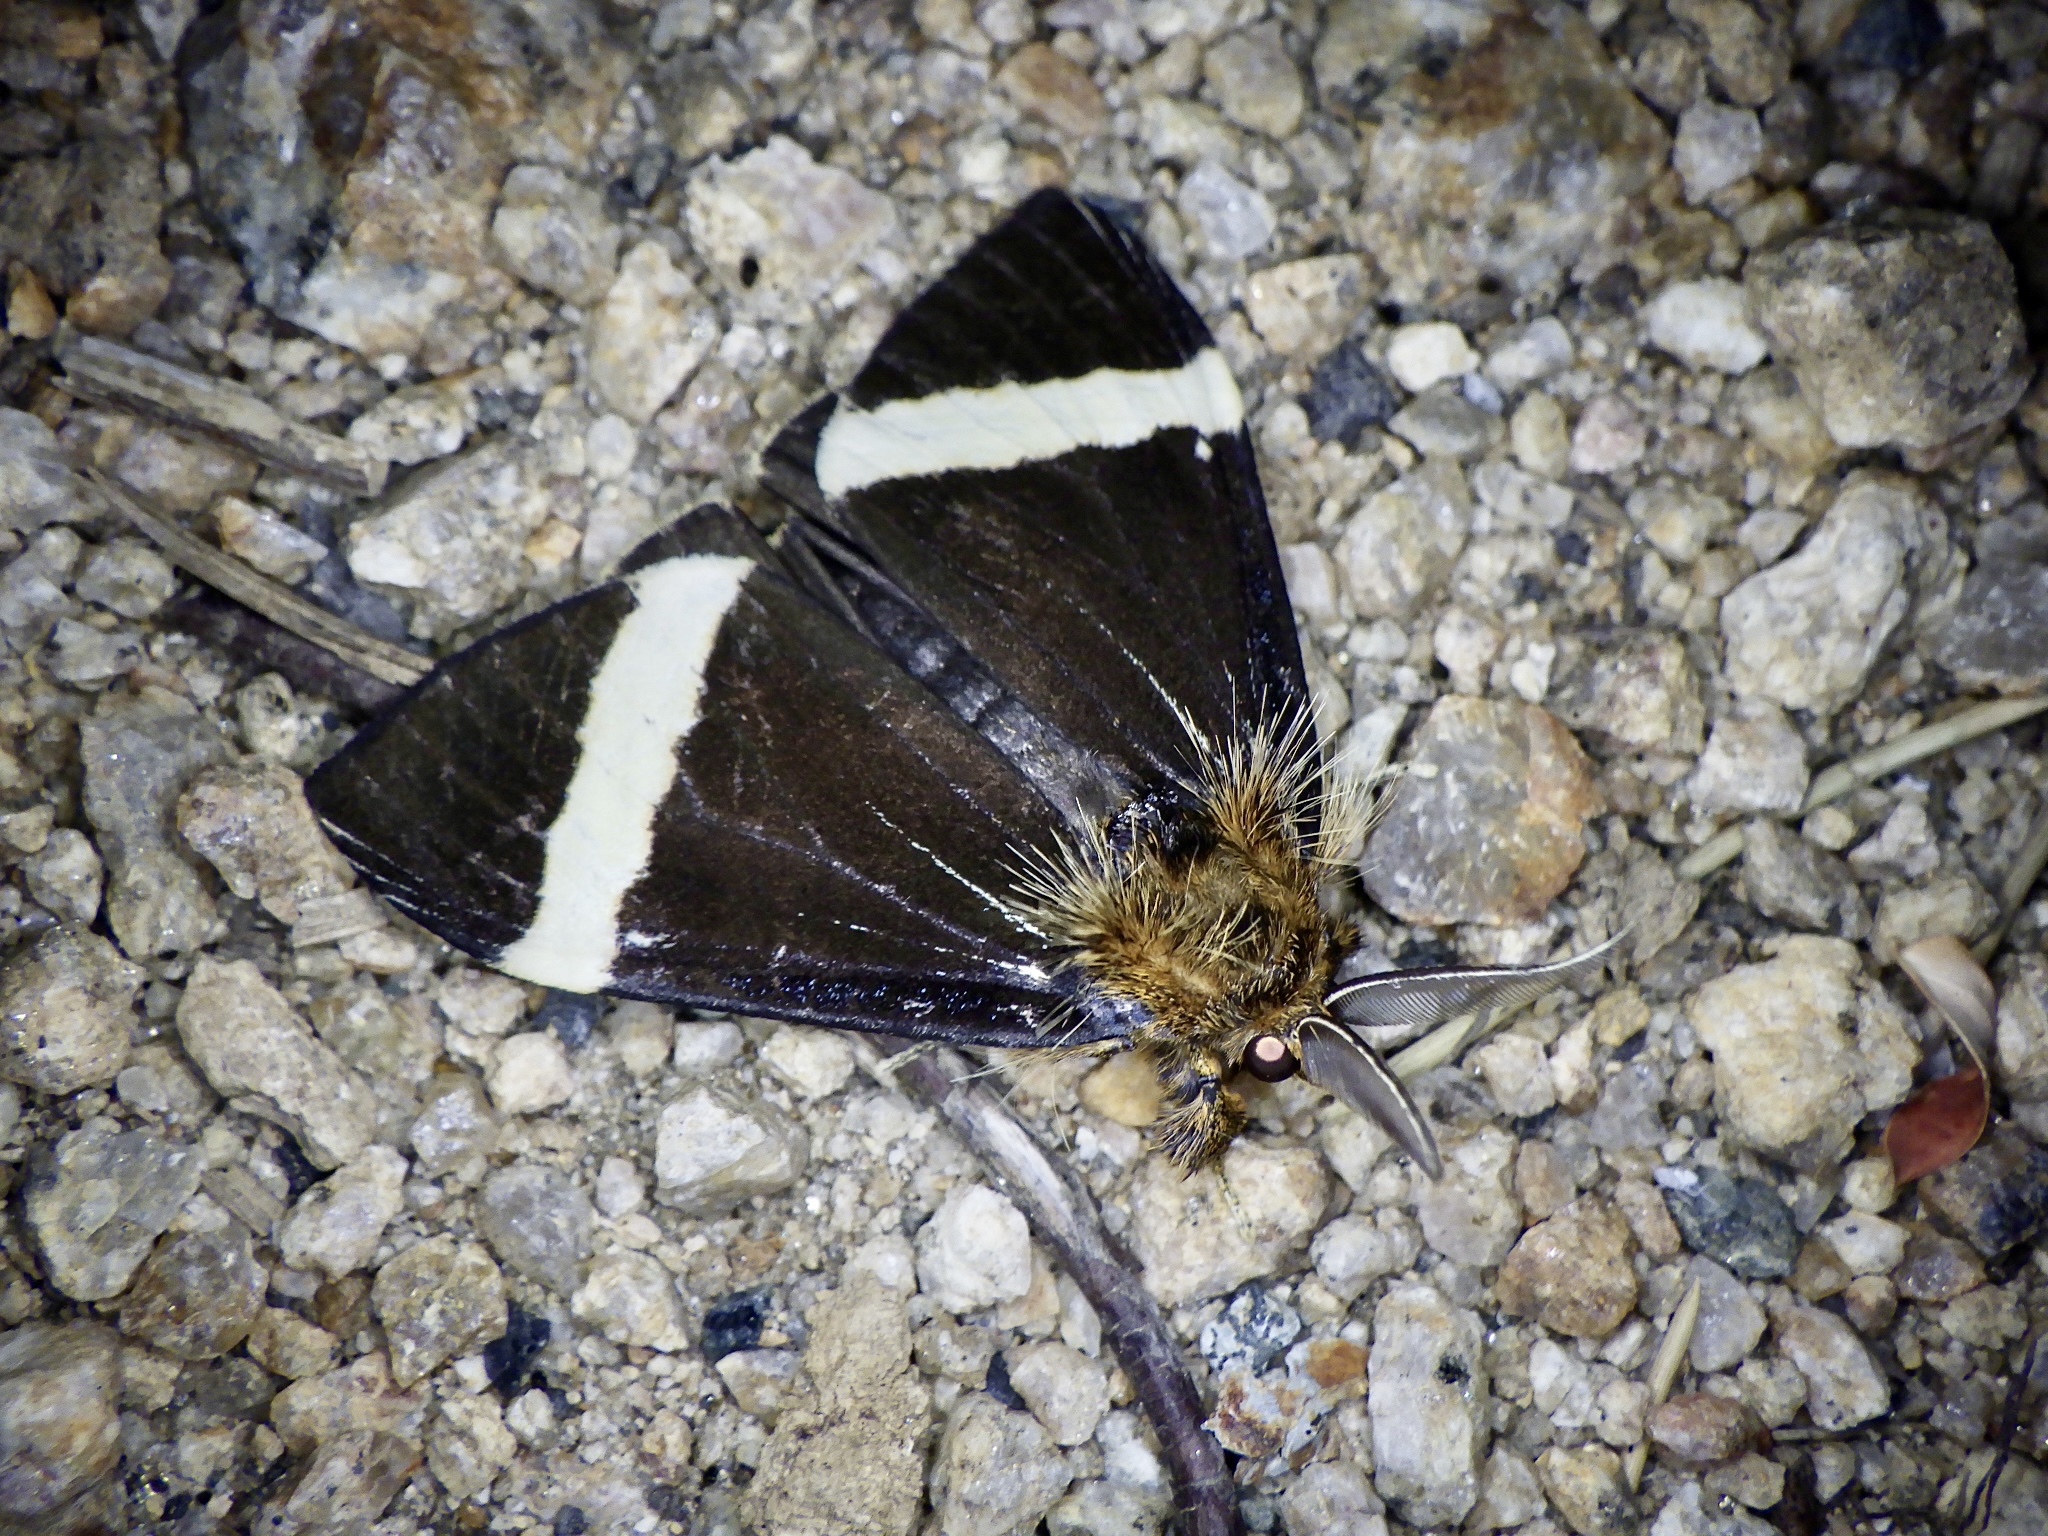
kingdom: Animalia
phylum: Arthropoda
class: Insecta
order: Lepidoptera
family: Erebidae
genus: Kuromondokuga
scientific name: Kuromondokuga albofascia
